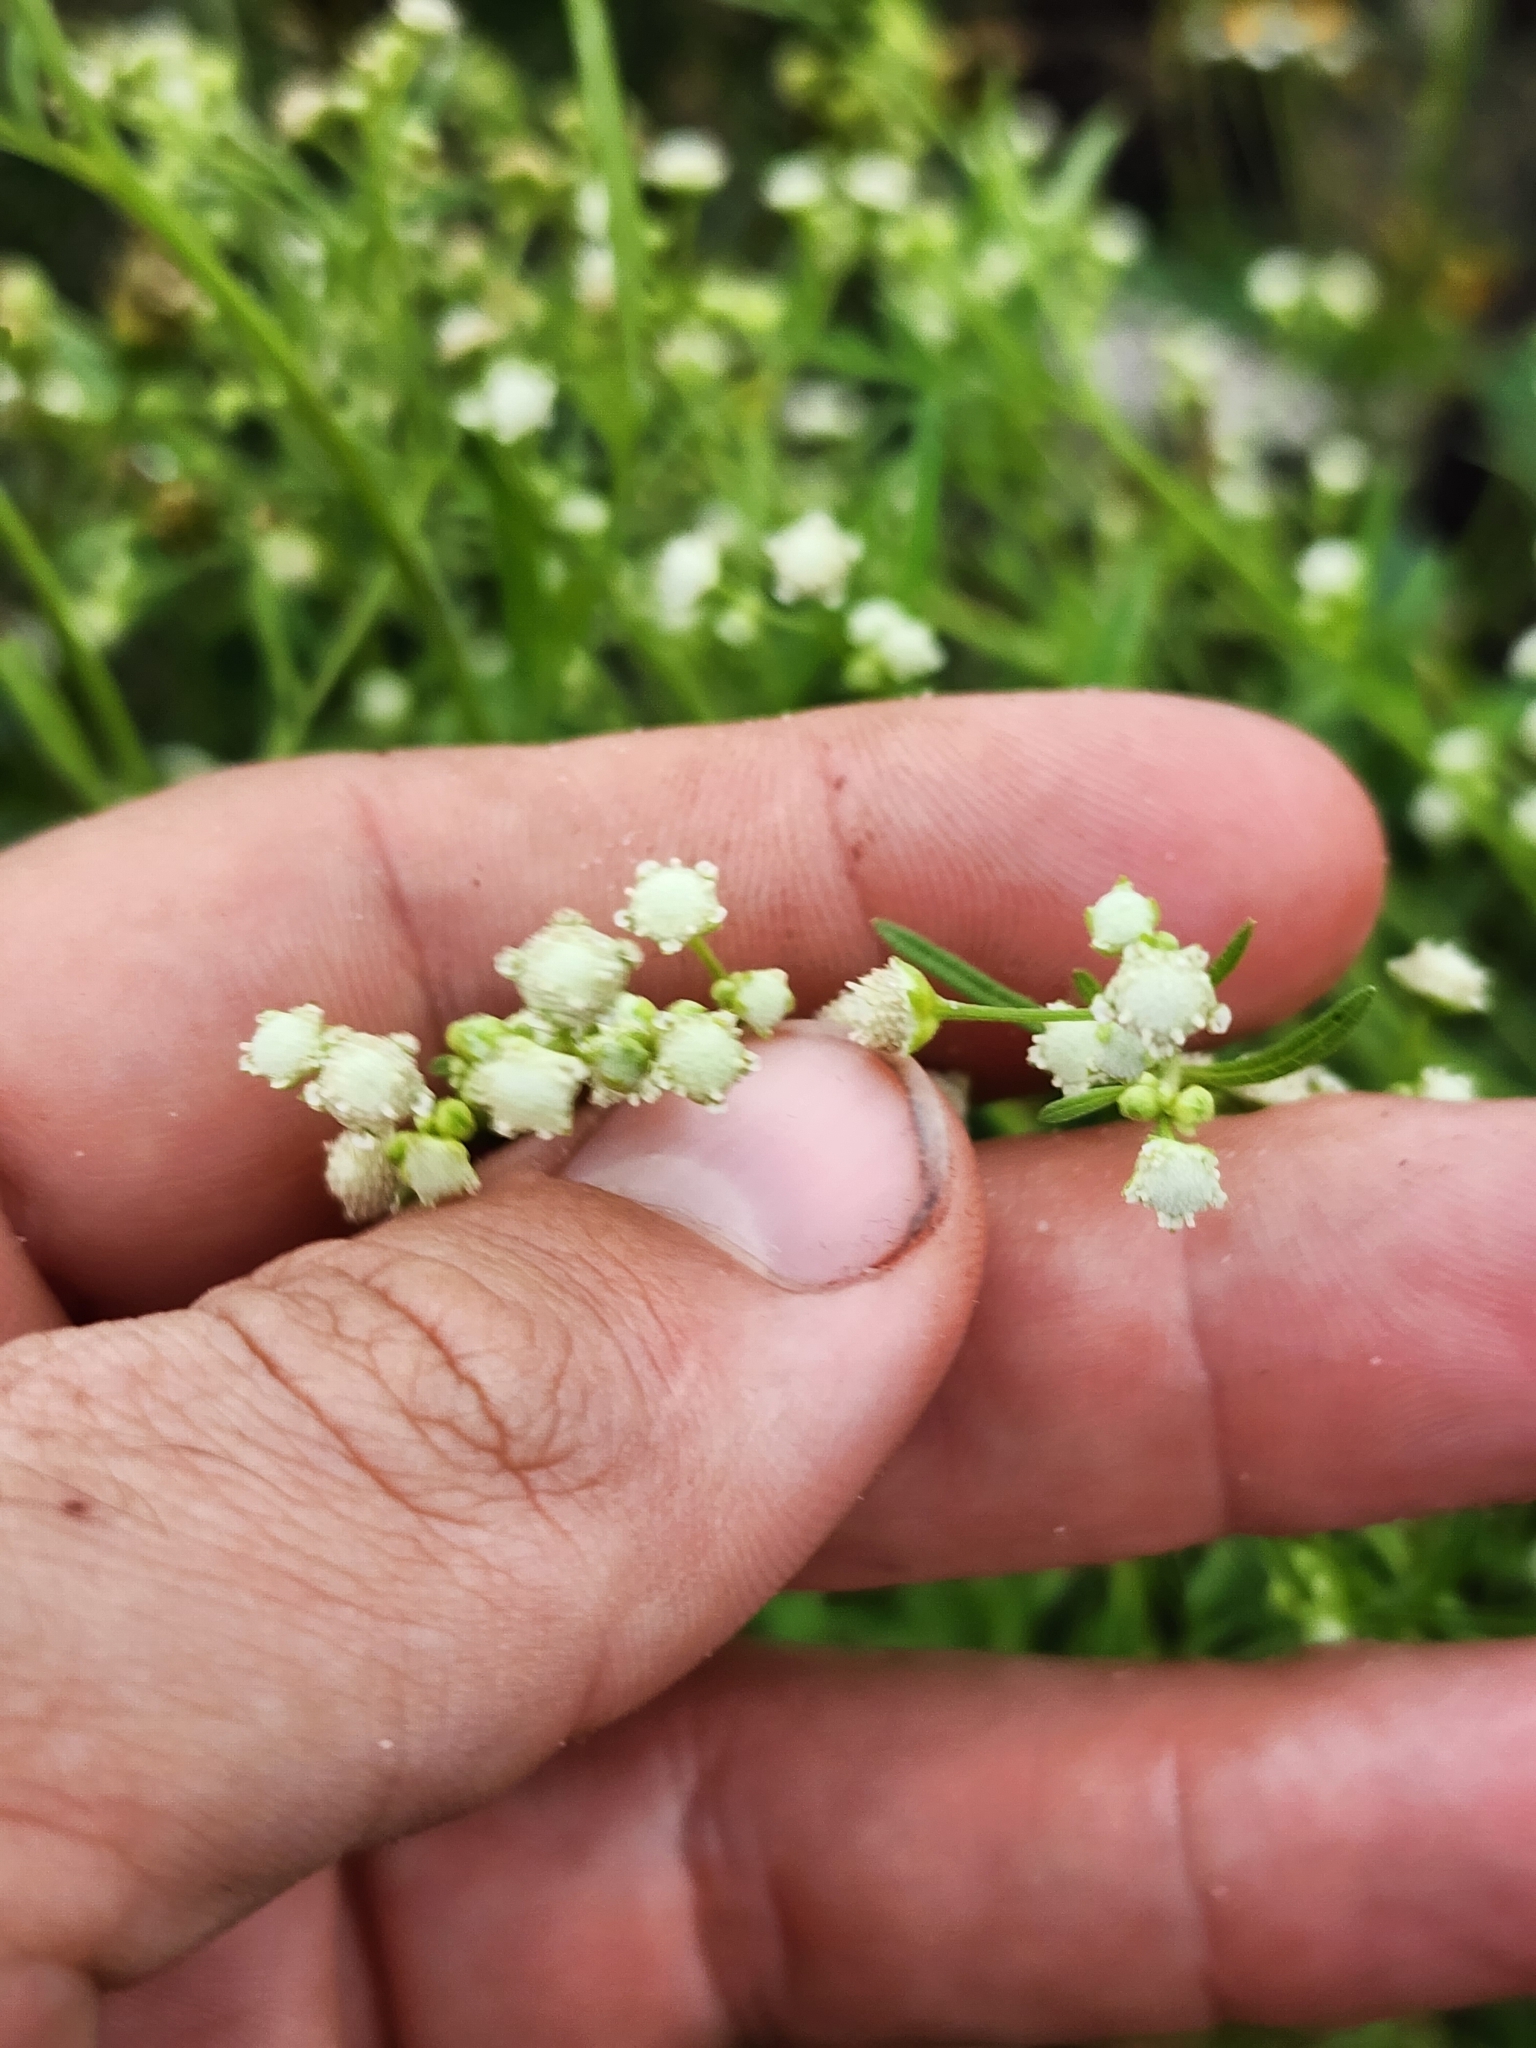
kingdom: Plantae
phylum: Tracheophyta
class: Magnoliopsida
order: Asterales
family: Asteraceae
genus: Parthenium
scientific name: Parthenium hysterophorus
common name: Santa maria feverfew
